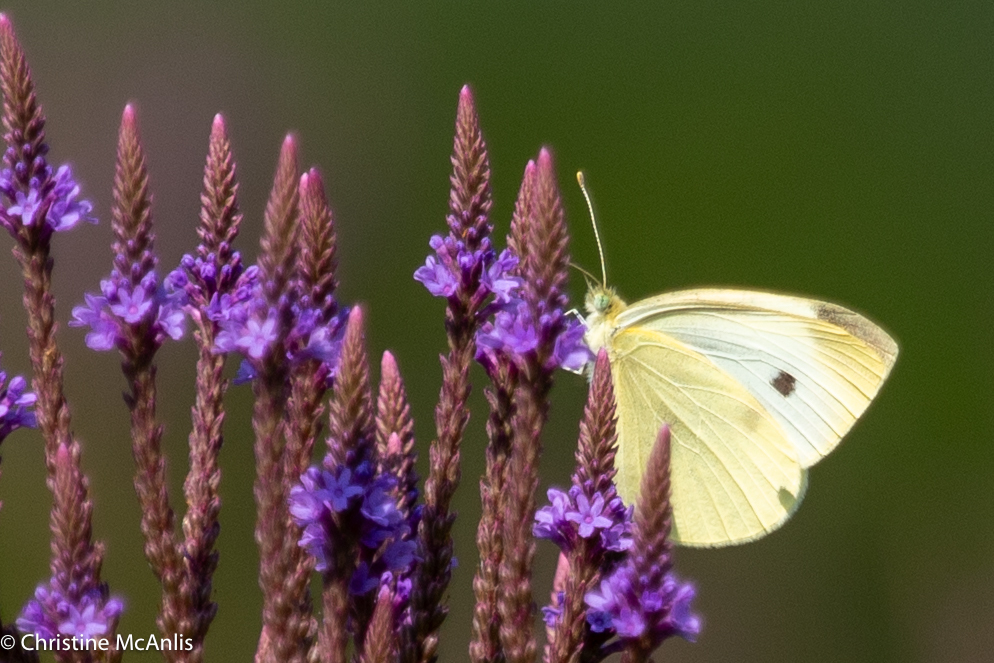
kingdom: Animalia
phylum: Arthropoda
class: Insecta
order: Lepidoptera
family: Pieridae
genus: Pieris
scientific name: Pieris rapae
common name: Small white
